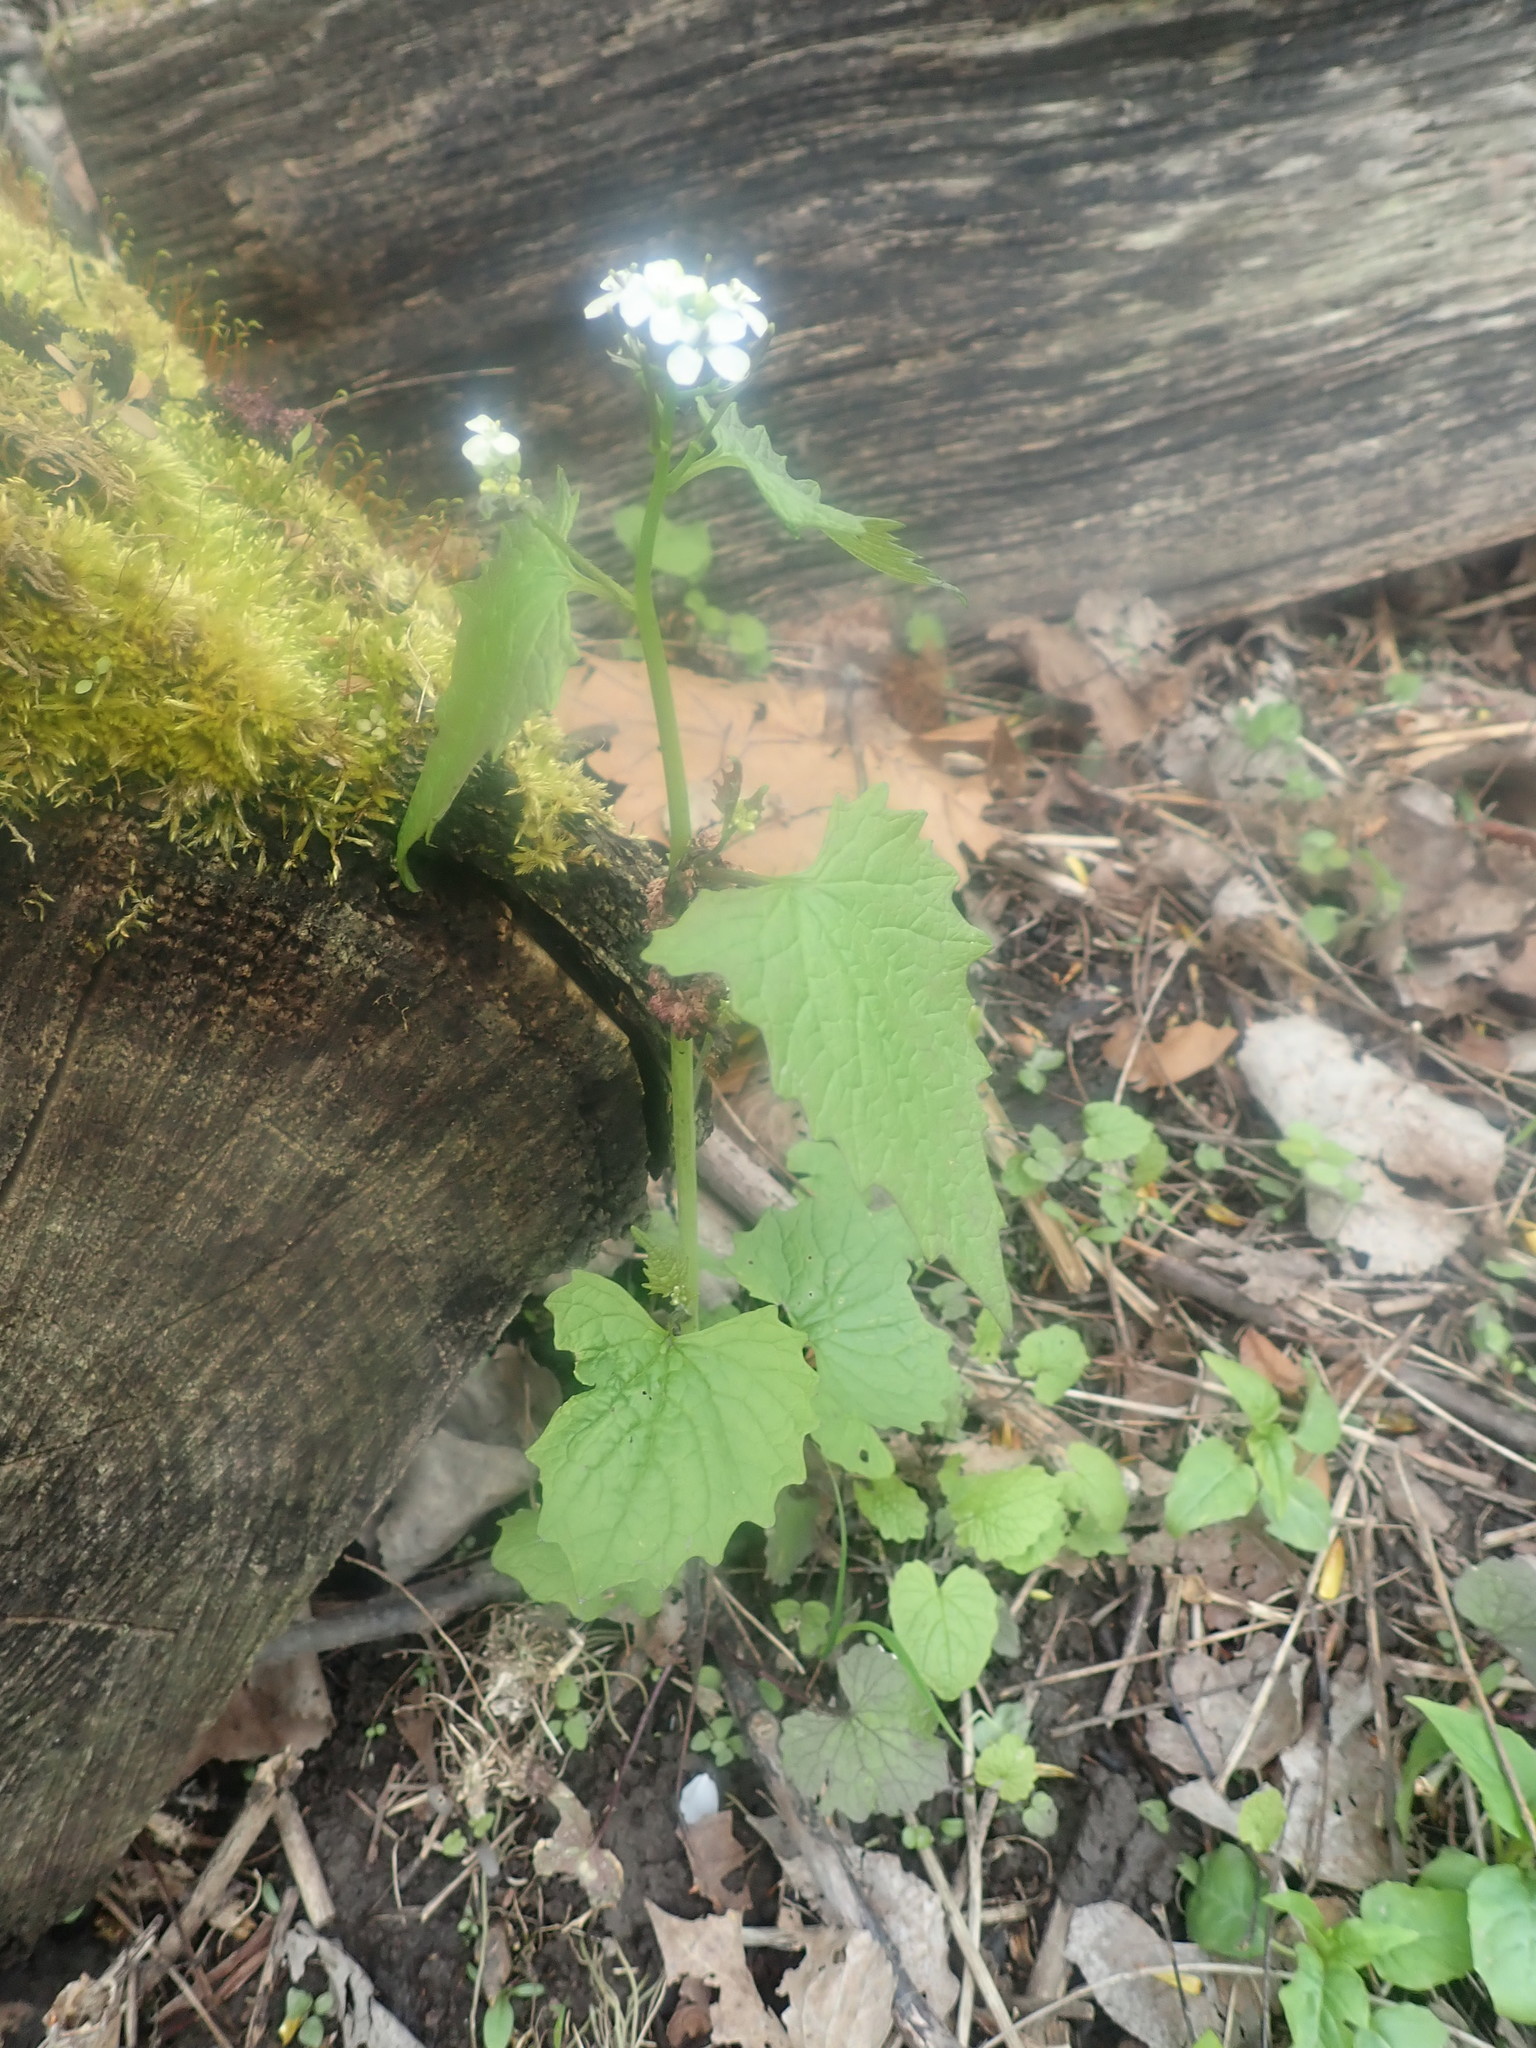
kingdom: Plantae
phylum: Tracheophyta
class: Magnoliopsida
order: Brassicales
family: Brassicaceae
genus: Alliaria
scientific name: Alliaria petiolata
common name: Garlic mustard
